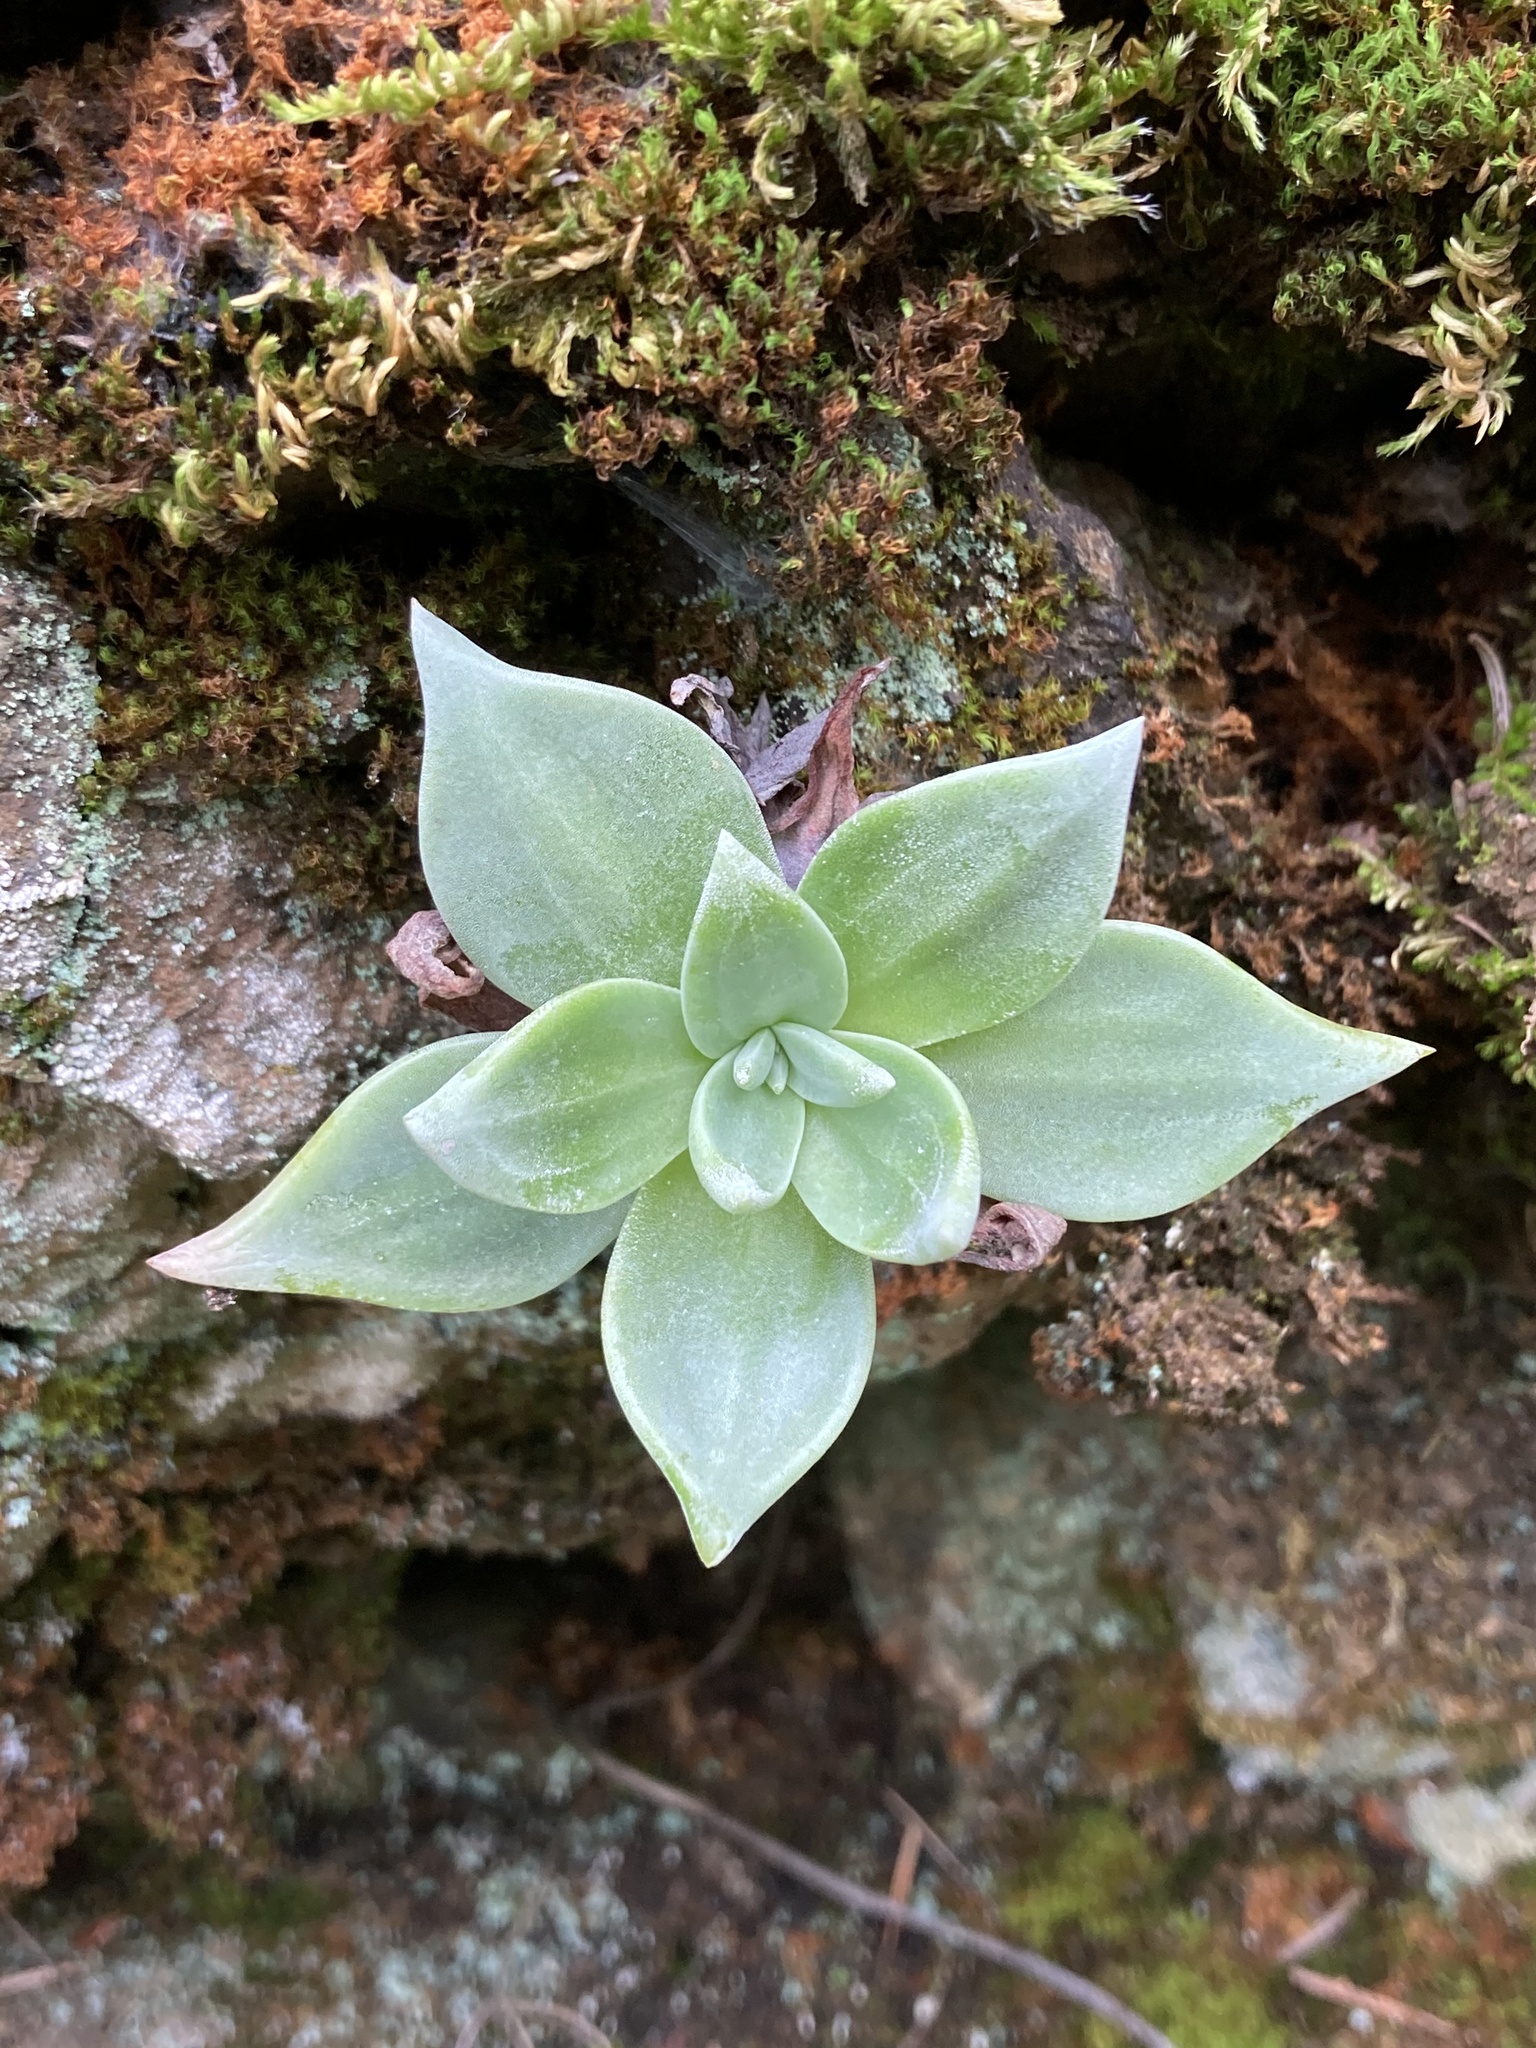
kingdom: Plantae
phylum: Tracheophyta
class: Magnoliopsida
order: Saxifragales
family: Crassulaceae
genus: Dudleya
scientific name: Dudleya cymosa
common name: Canyon dudleya
